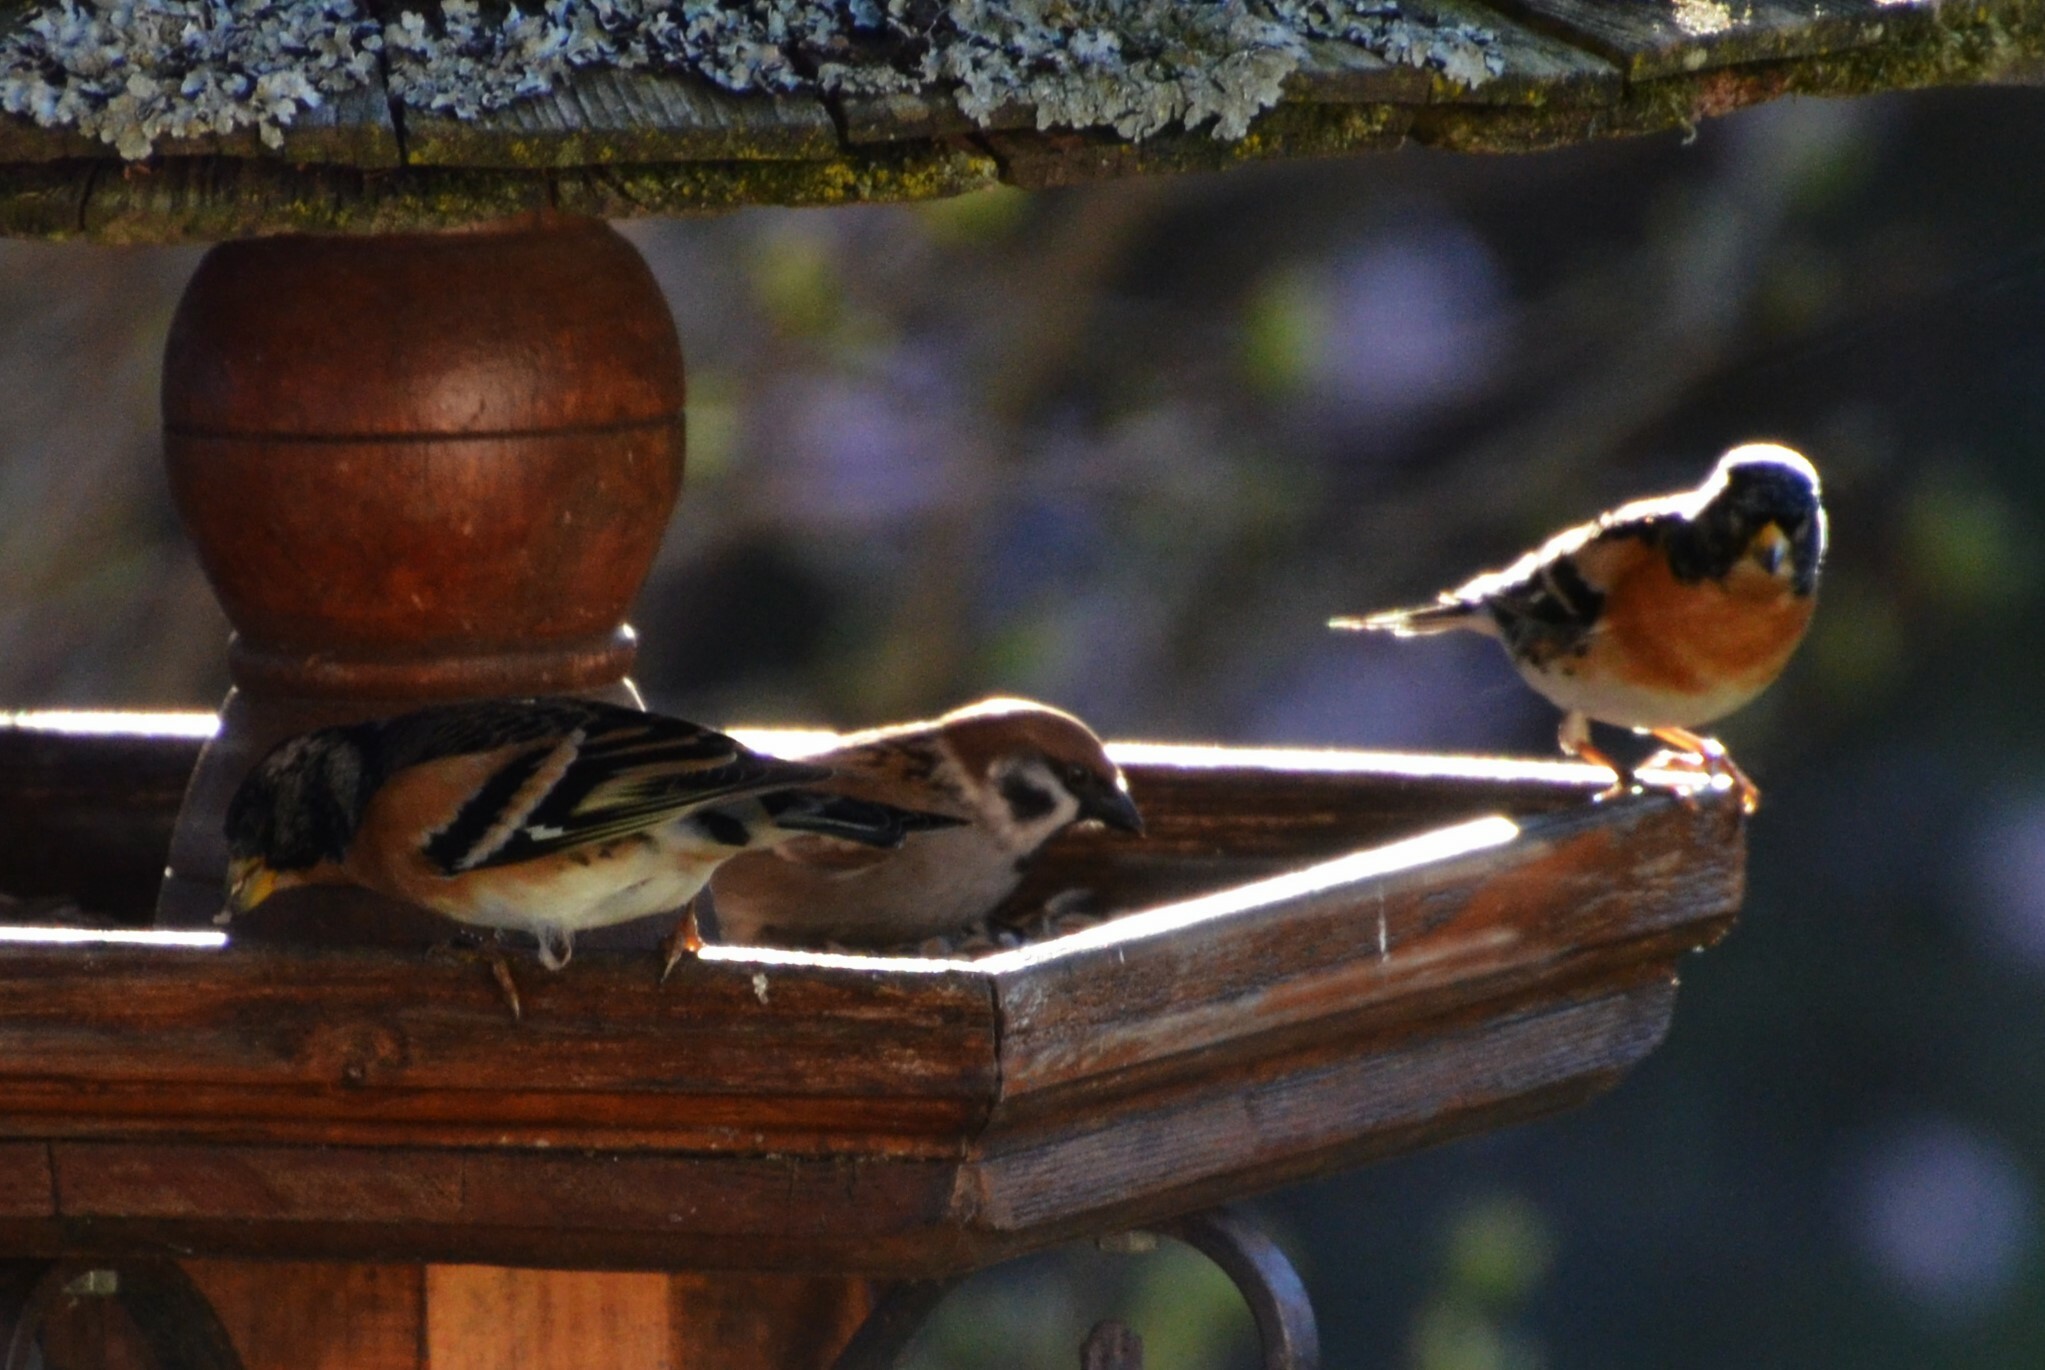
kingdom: Animalia
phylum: Chordata
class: Aves
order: Passeriformes
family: Passeridae
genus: Passer
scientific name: Passer montanus
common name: Eurasian tree sparrow
